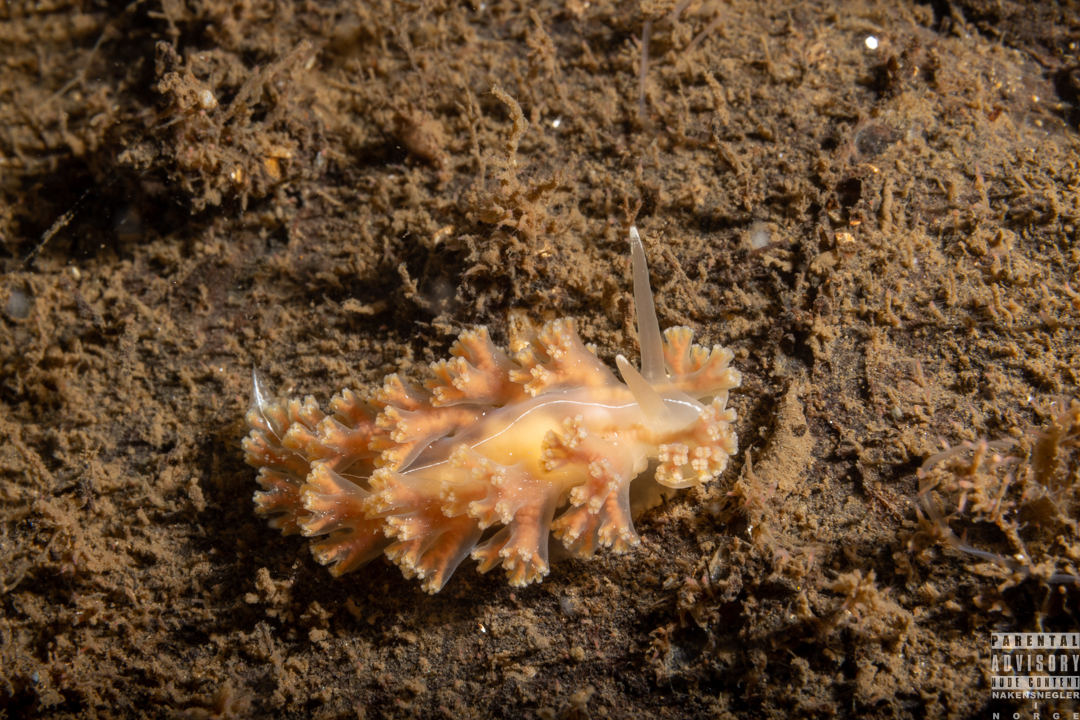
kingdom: Animalia
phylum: Mollusca
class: Gastropoda
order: Nudibranchia
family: Heroidae
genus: Hero
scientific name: Hero formosa
